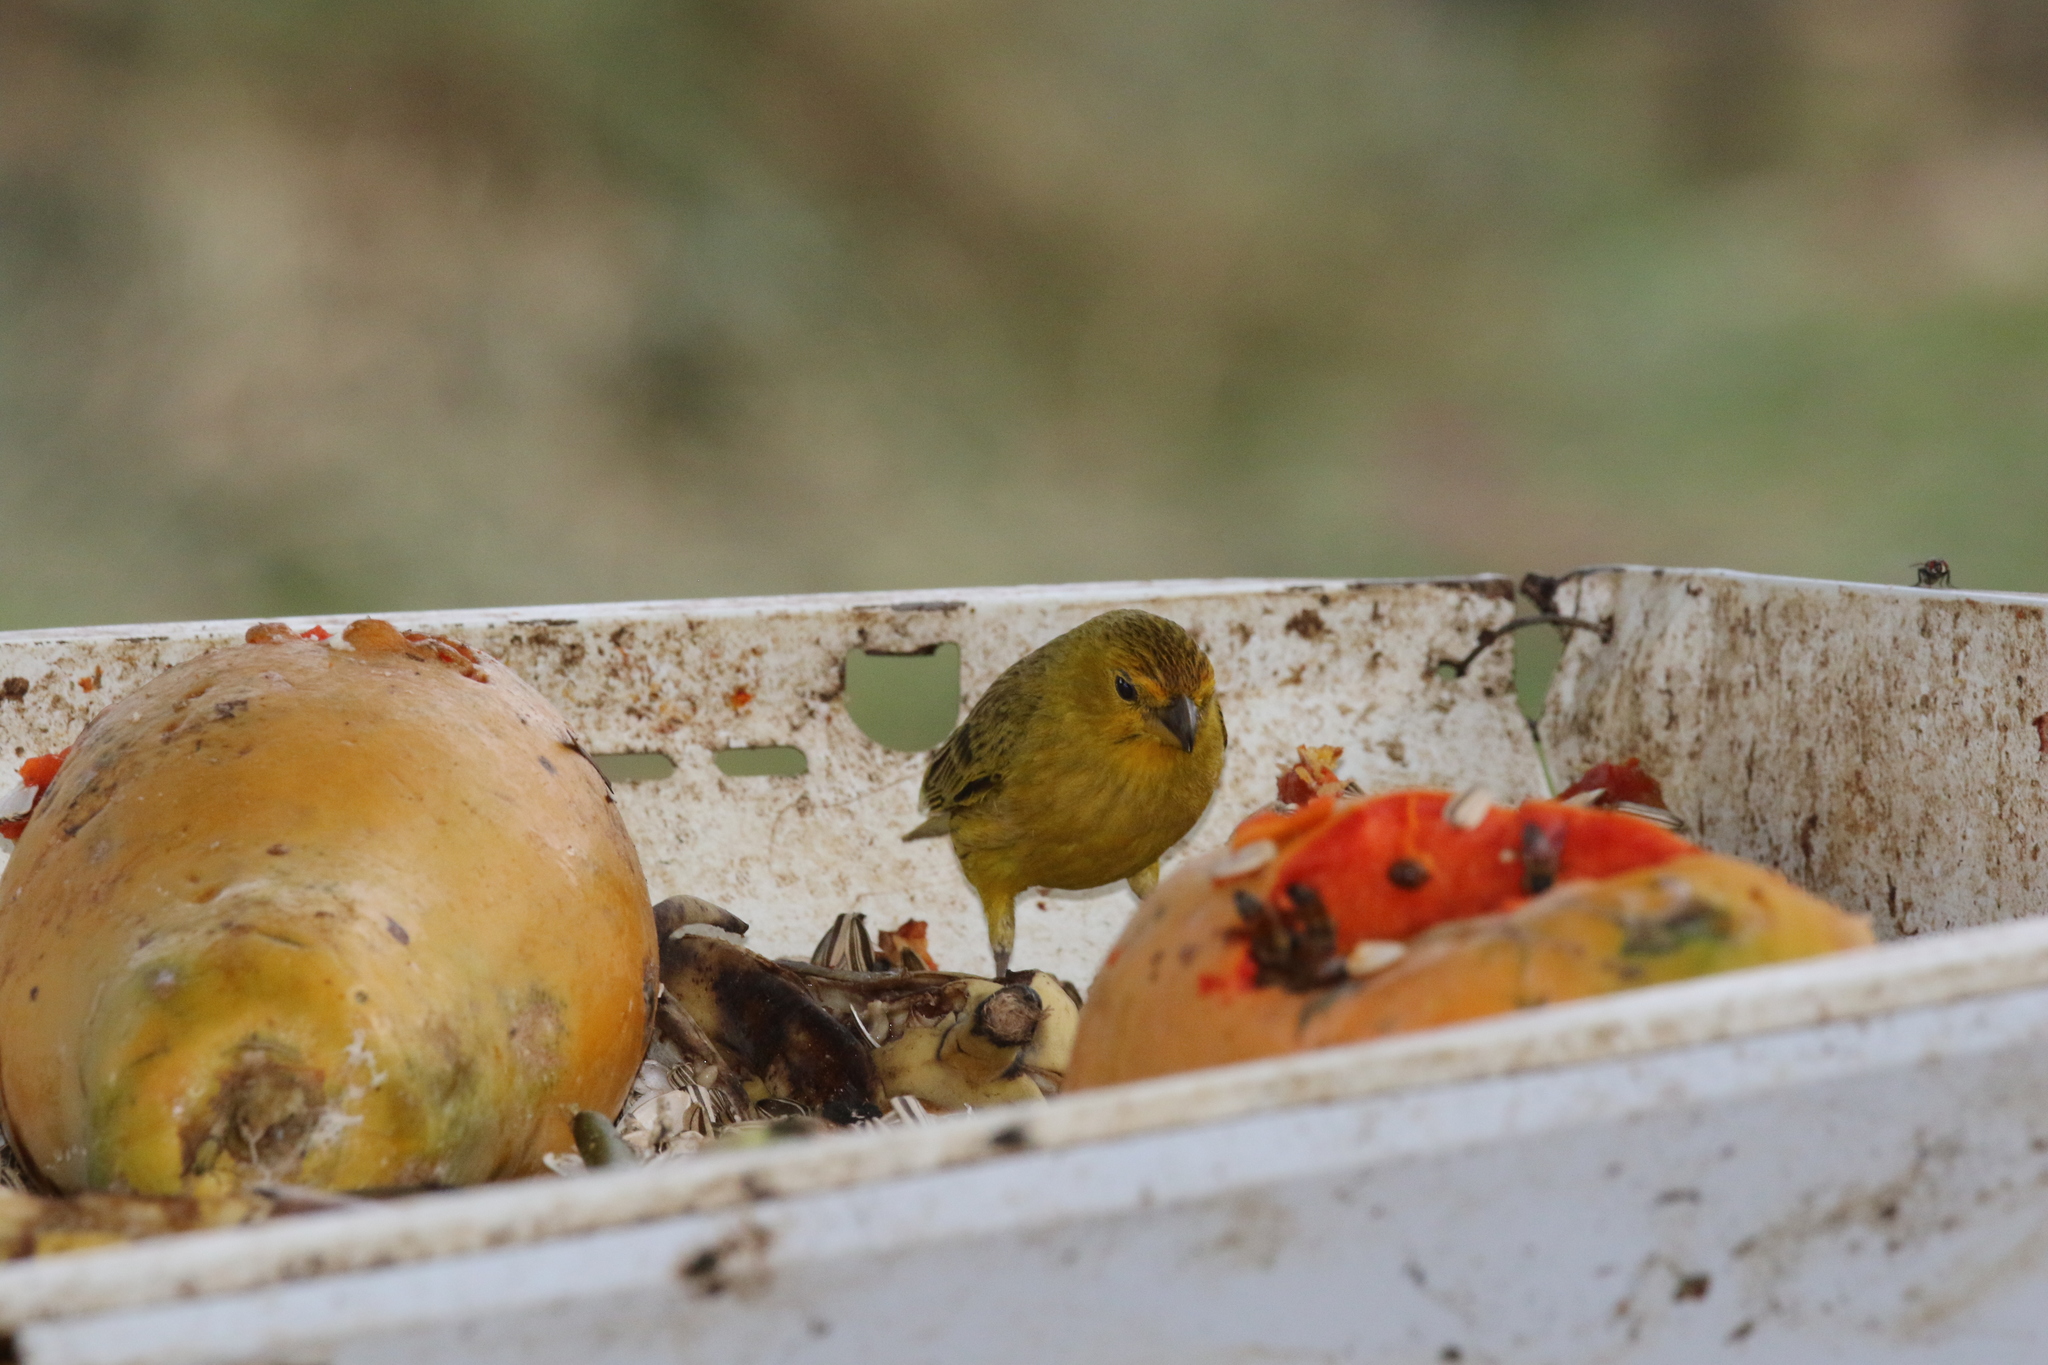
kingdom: Animalia
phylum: Chordata
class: Aves
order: Passeriformes
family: Thraupidae
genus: Sicalis
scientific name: Sicalis flaveola
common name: Saffron finch
